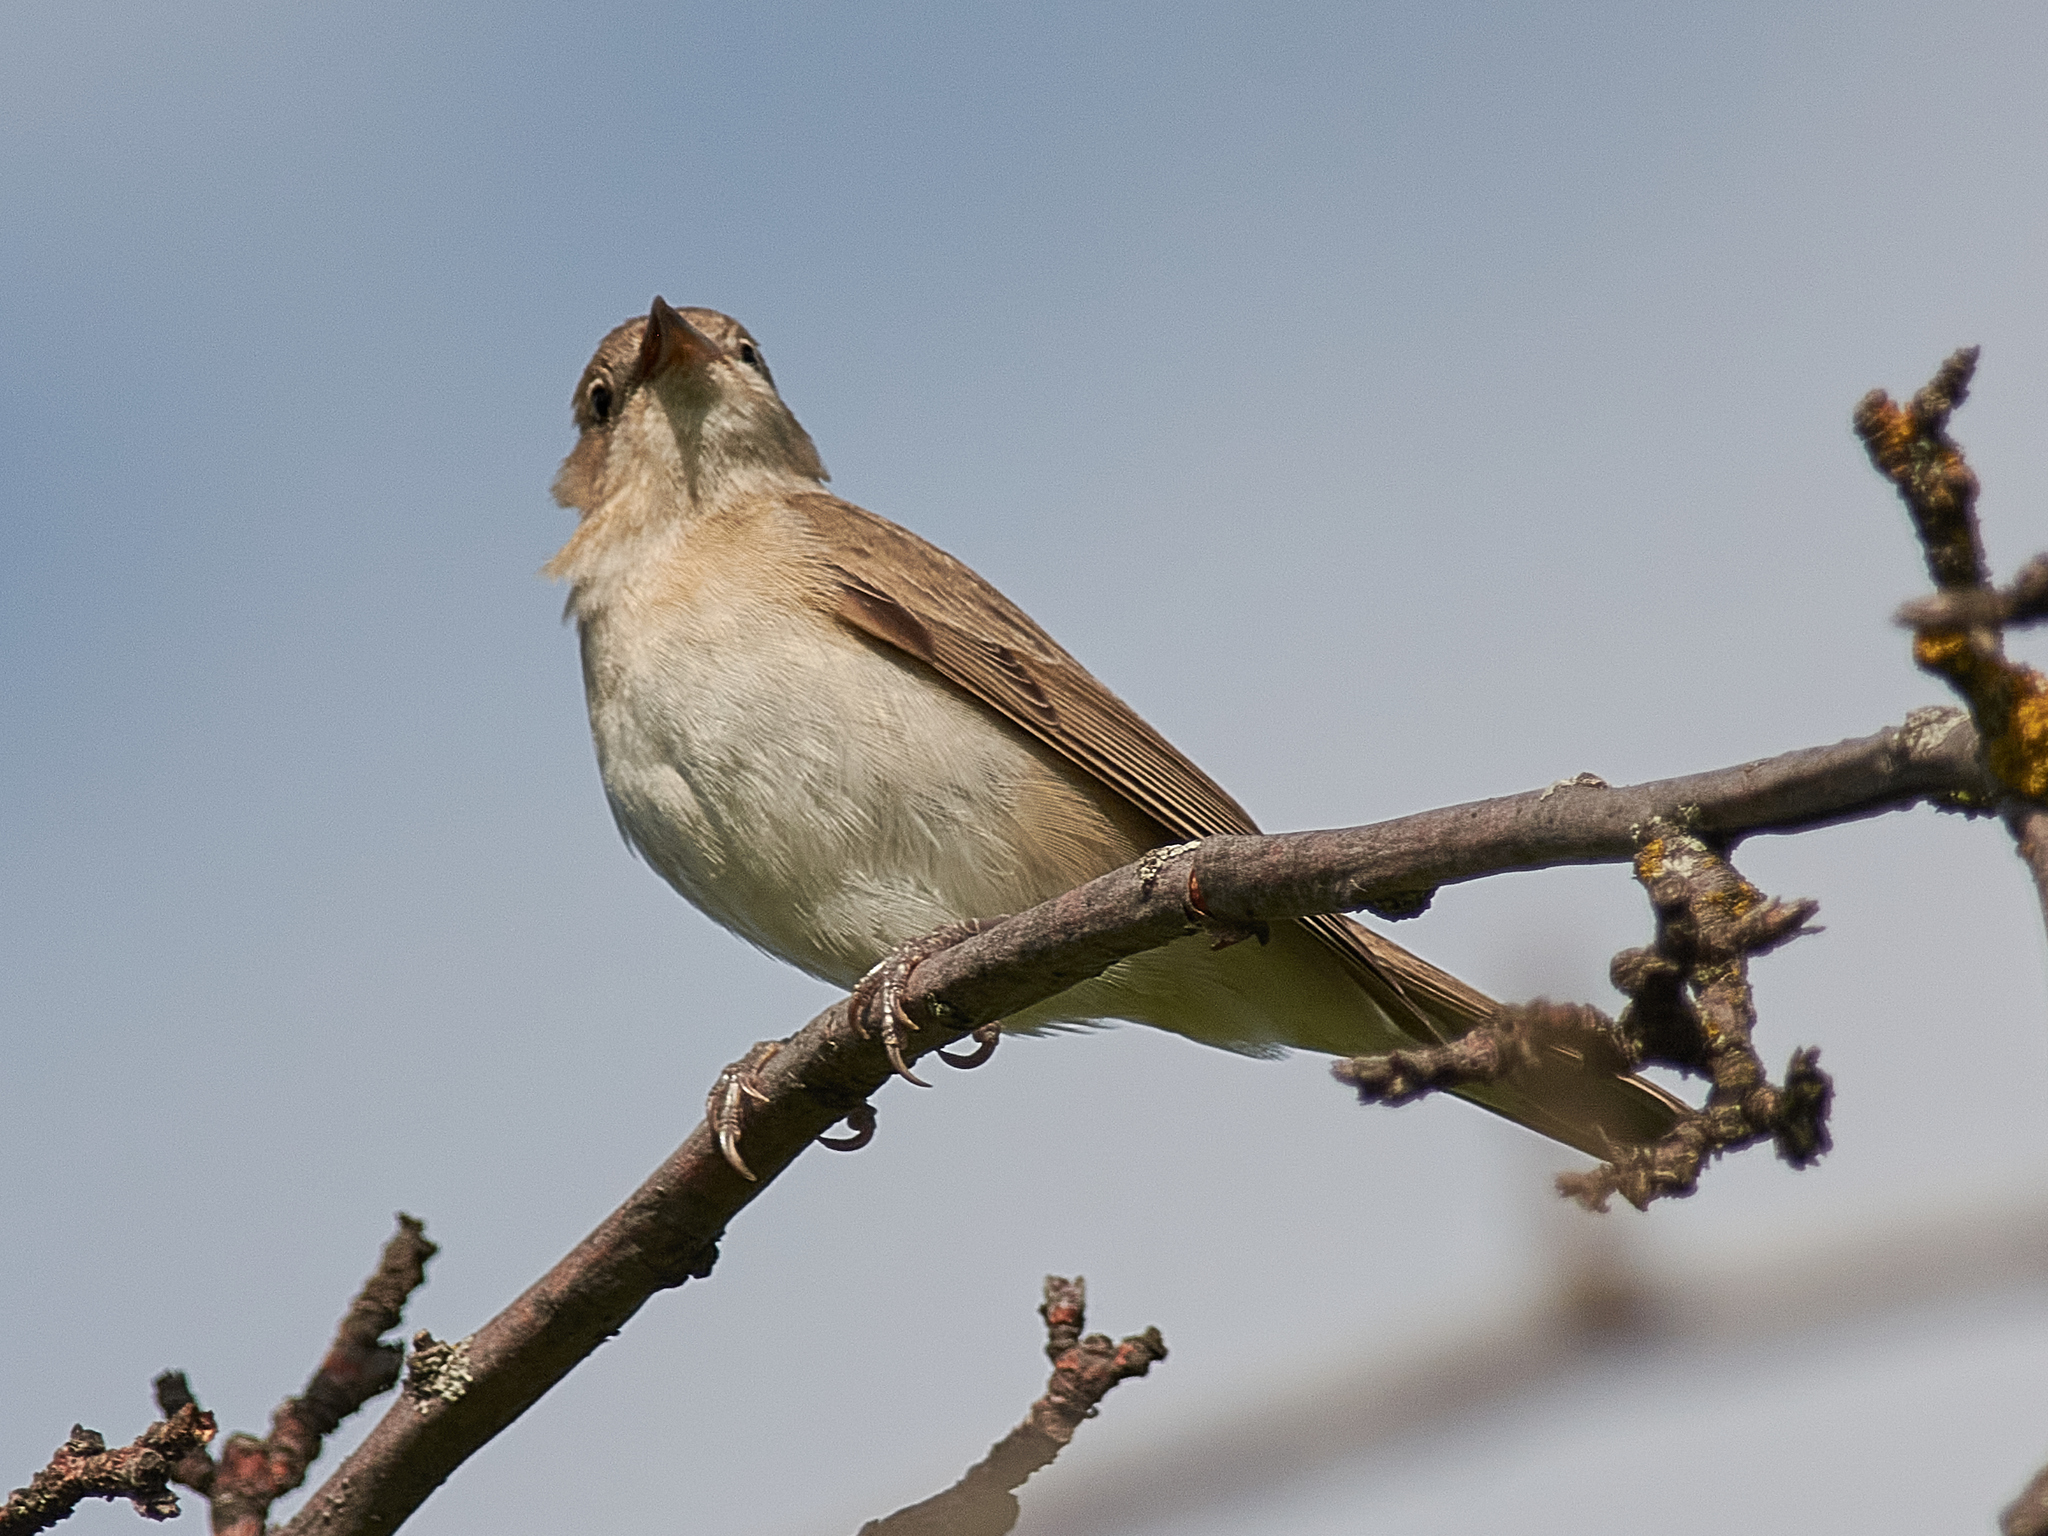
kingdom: Animalia
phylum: Chordata
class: Aves
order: Passeriformes
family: Sylviidae
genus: Sylvia
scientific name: Sylvia borin
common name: Garden warbler
